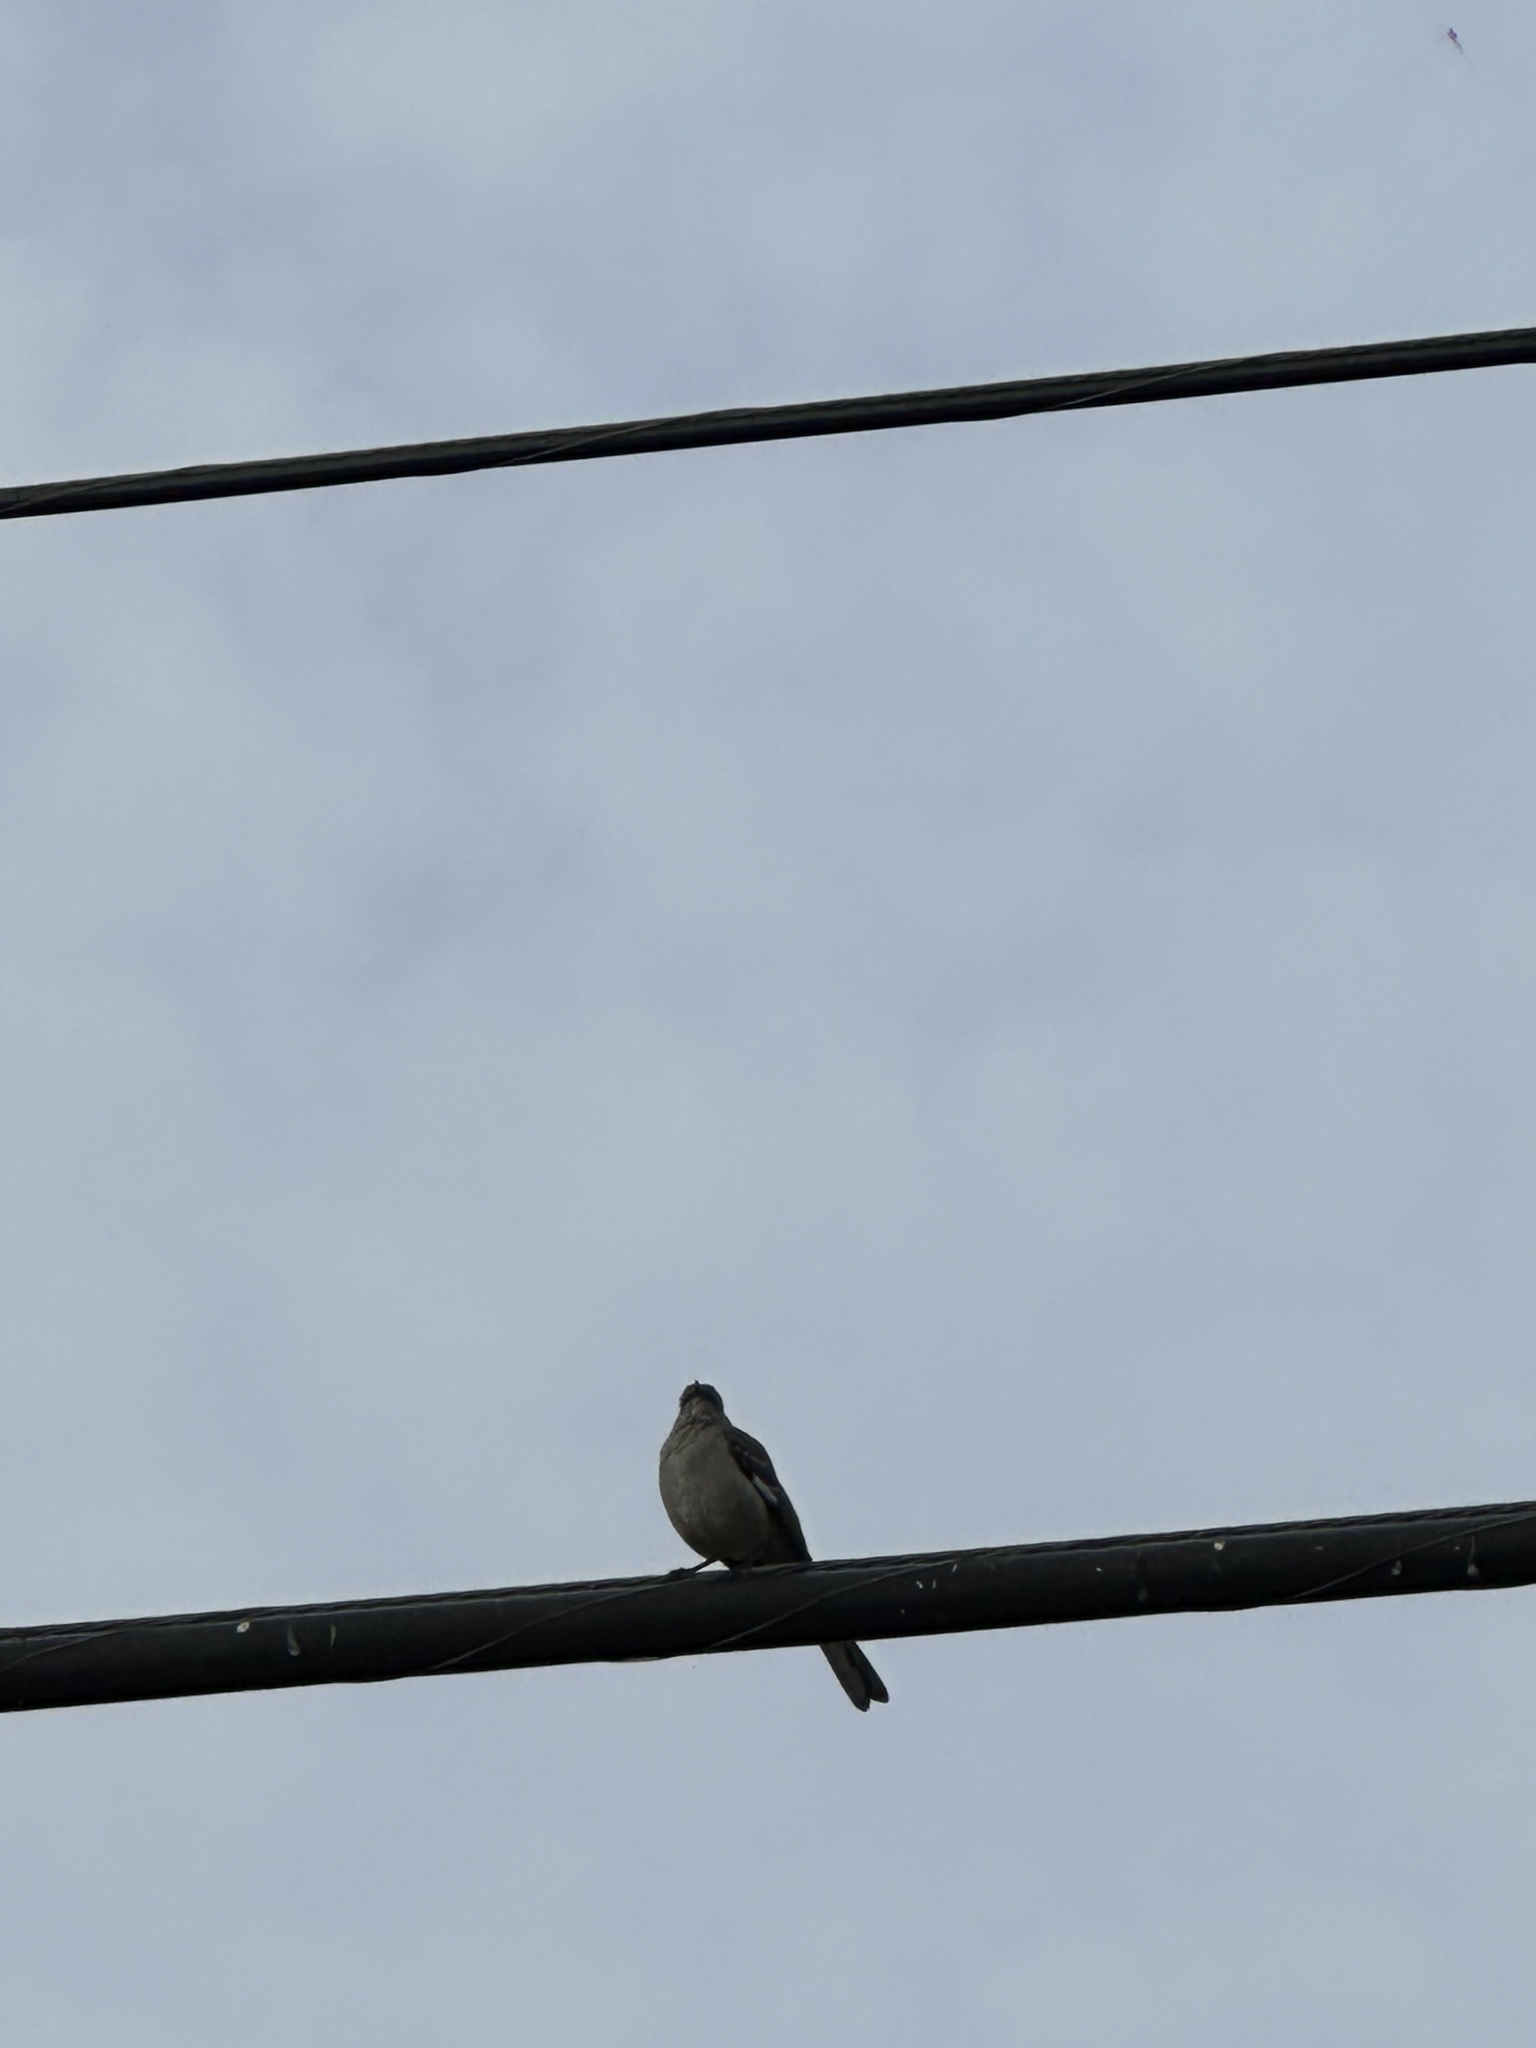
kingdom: Animalia
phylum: Chordata
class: Aves
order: Passeriformes
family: Mimidae
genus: Mimus
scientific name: Mimus polyglottos
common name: Northern mockingbird
